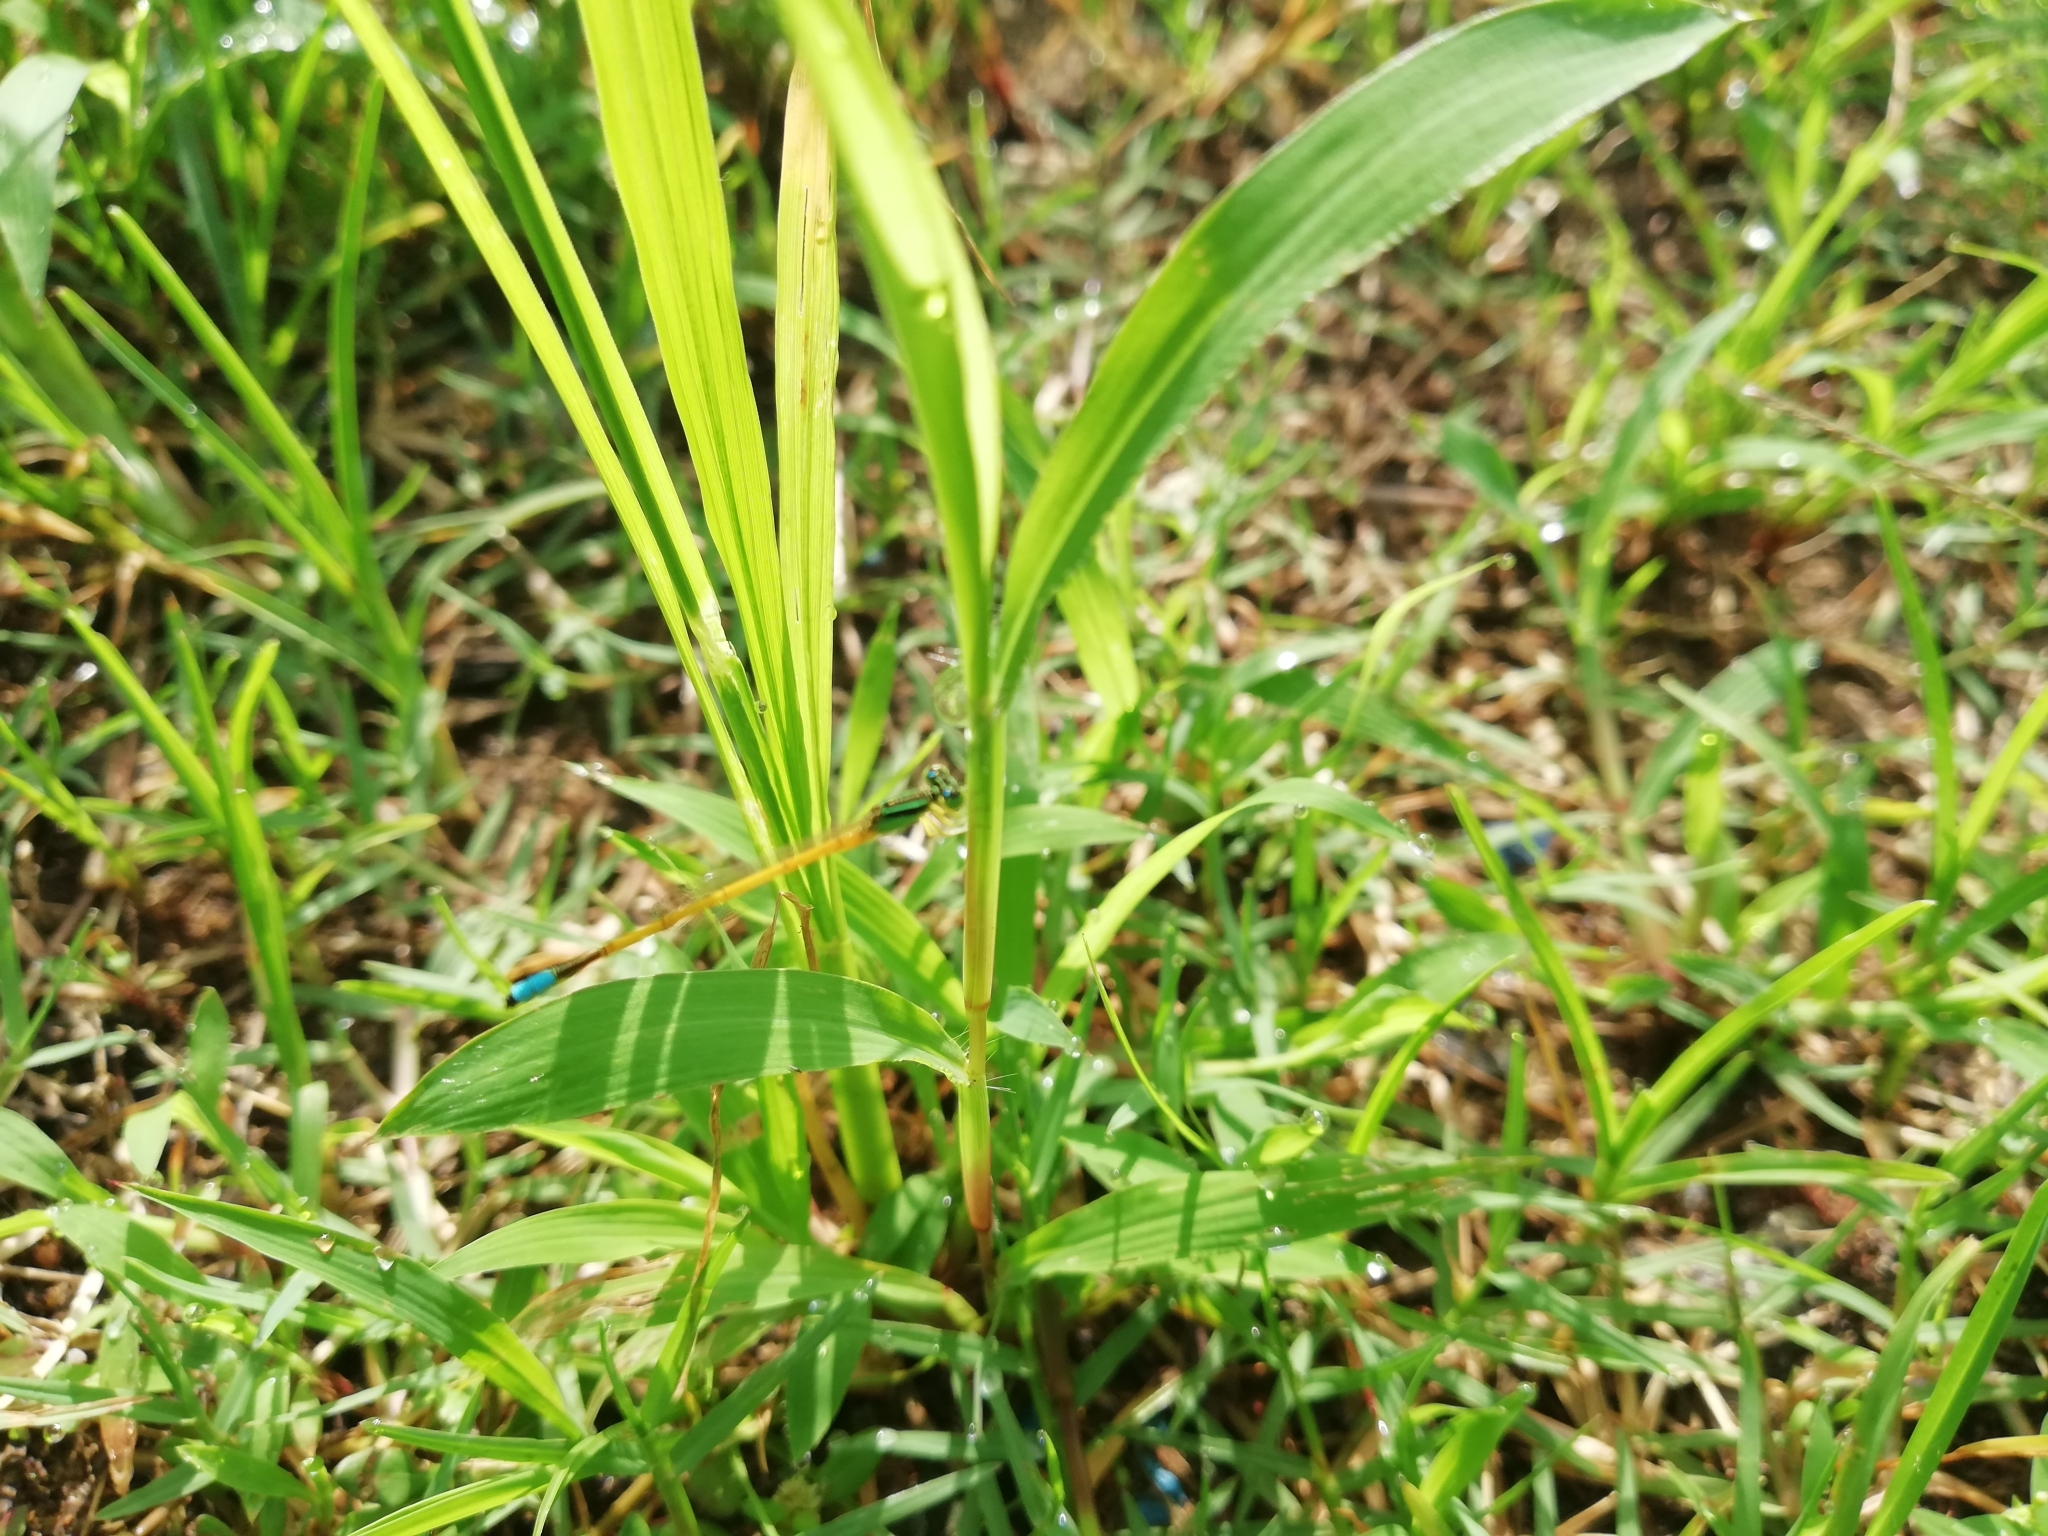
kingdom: Animalia
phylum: Arthropoda
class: Insecta
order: Odonata
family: Coenagrionidae
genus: Ischnura
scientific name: Ischnura rubilio
